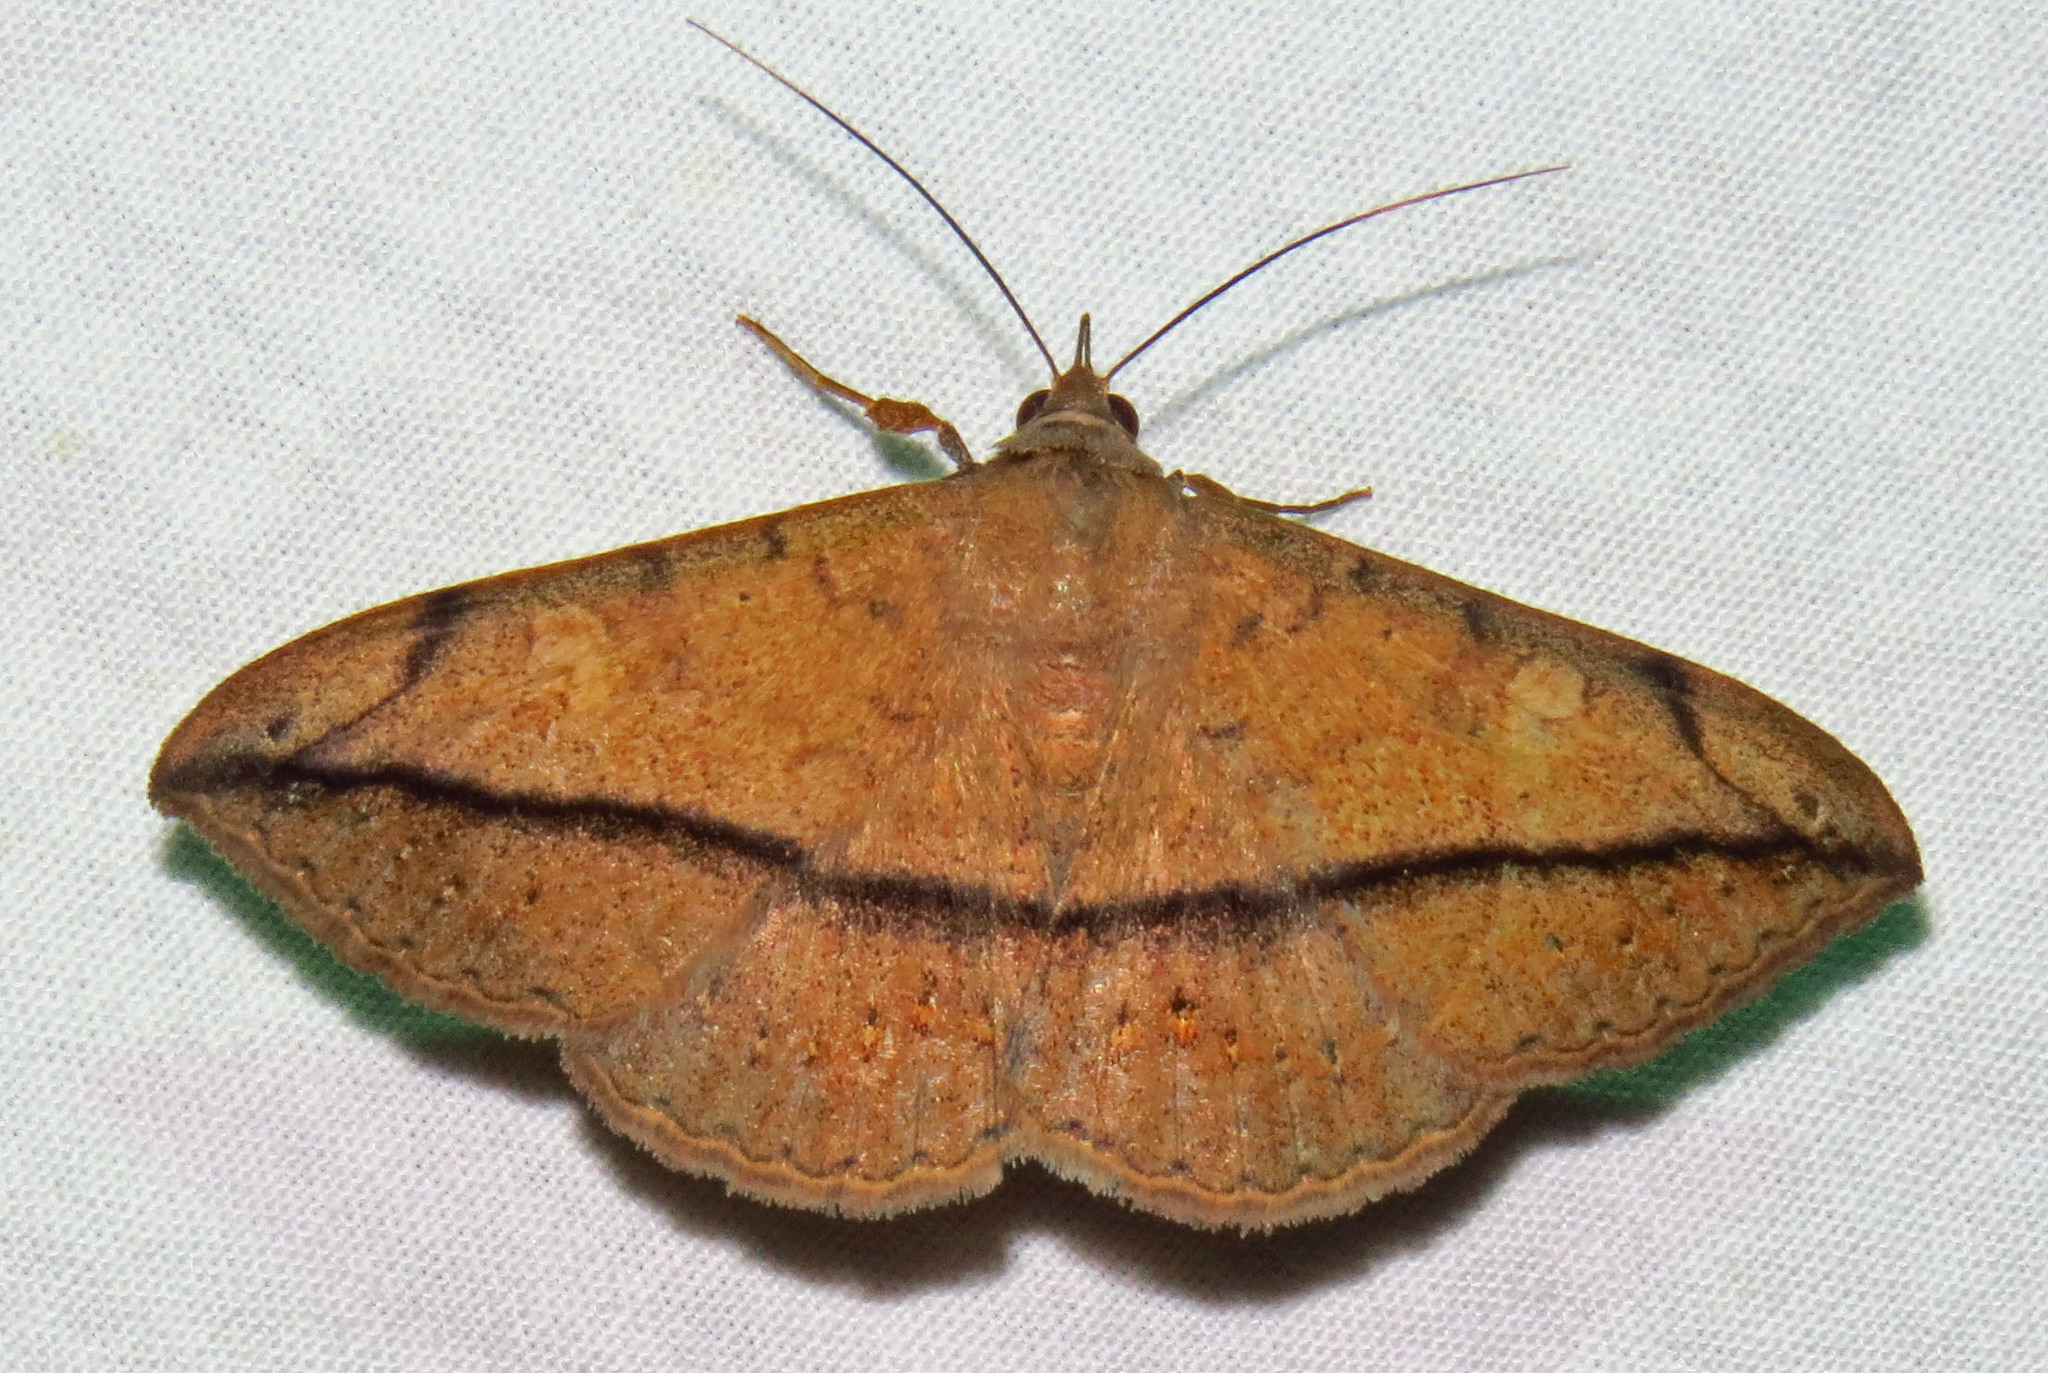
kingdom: Animalia
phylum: Arthropoda
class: Insecta
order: Lepidoptera
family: Erebidae
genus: Anticarsia
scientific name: Anticarsia gemmatalis
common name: Cutworm moth
